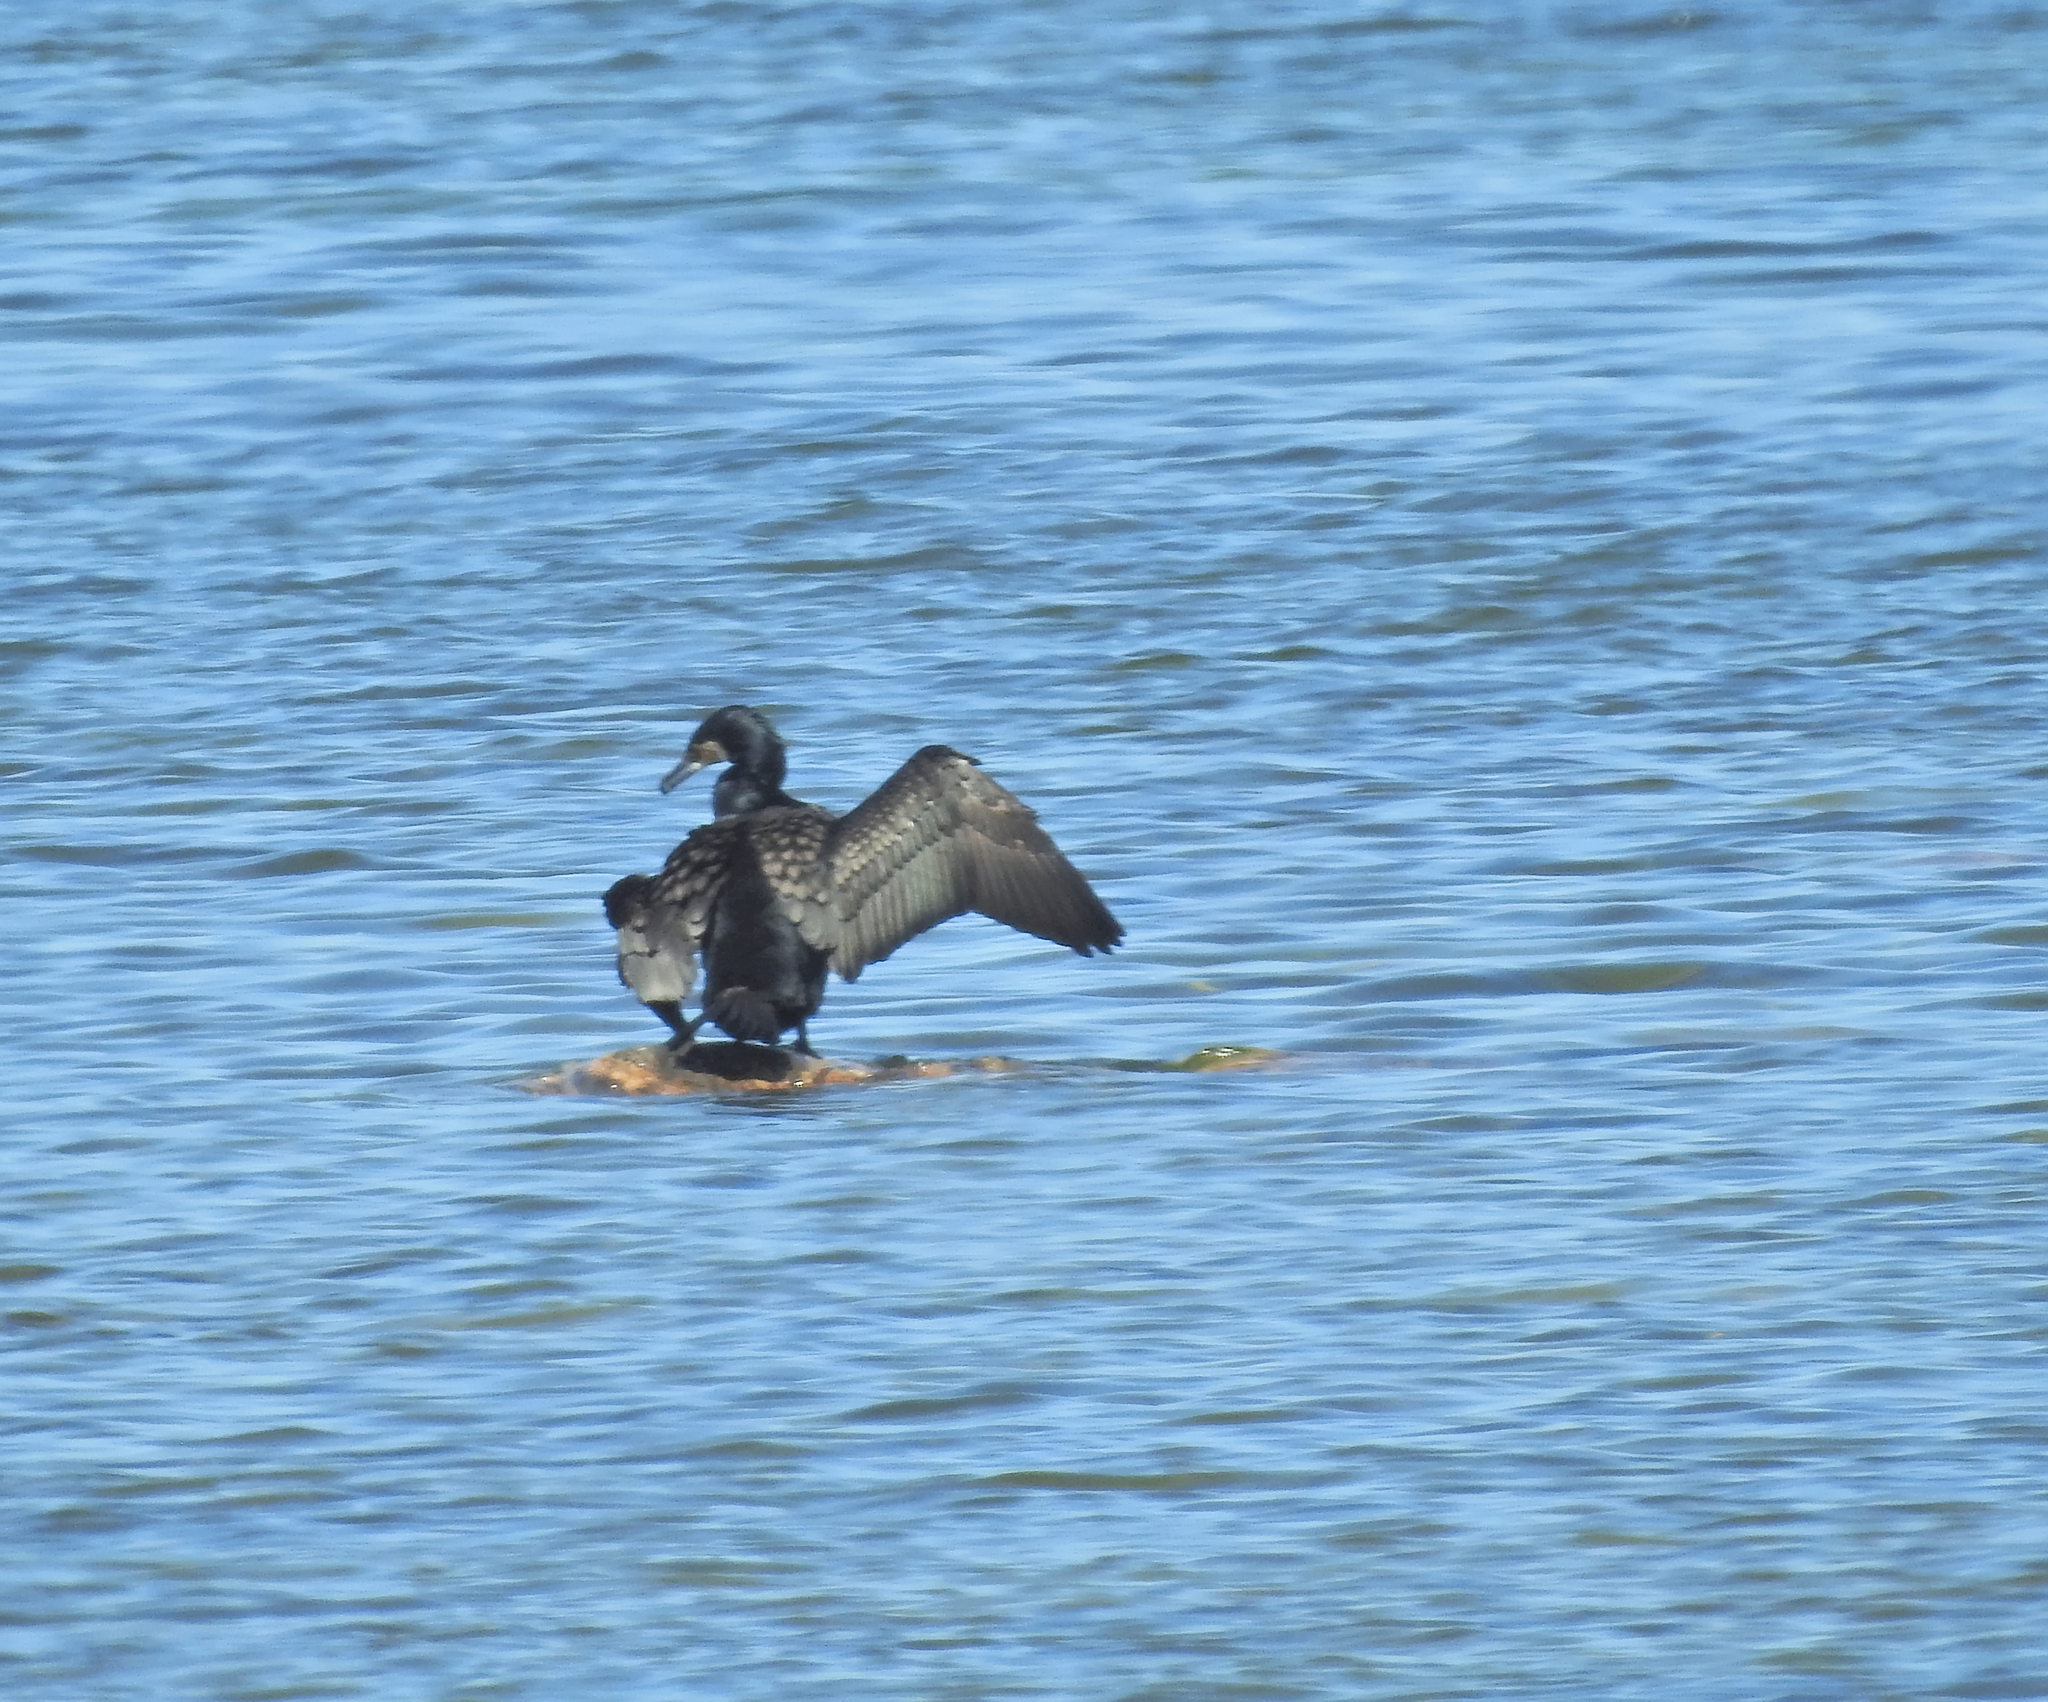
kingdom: Animalia
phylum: Chordata
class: Aves
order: Suliformes
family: Phalacrocoracidae
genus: Phalacrocorax
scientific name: Phalacrocorax carbo
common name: Great cormorant
